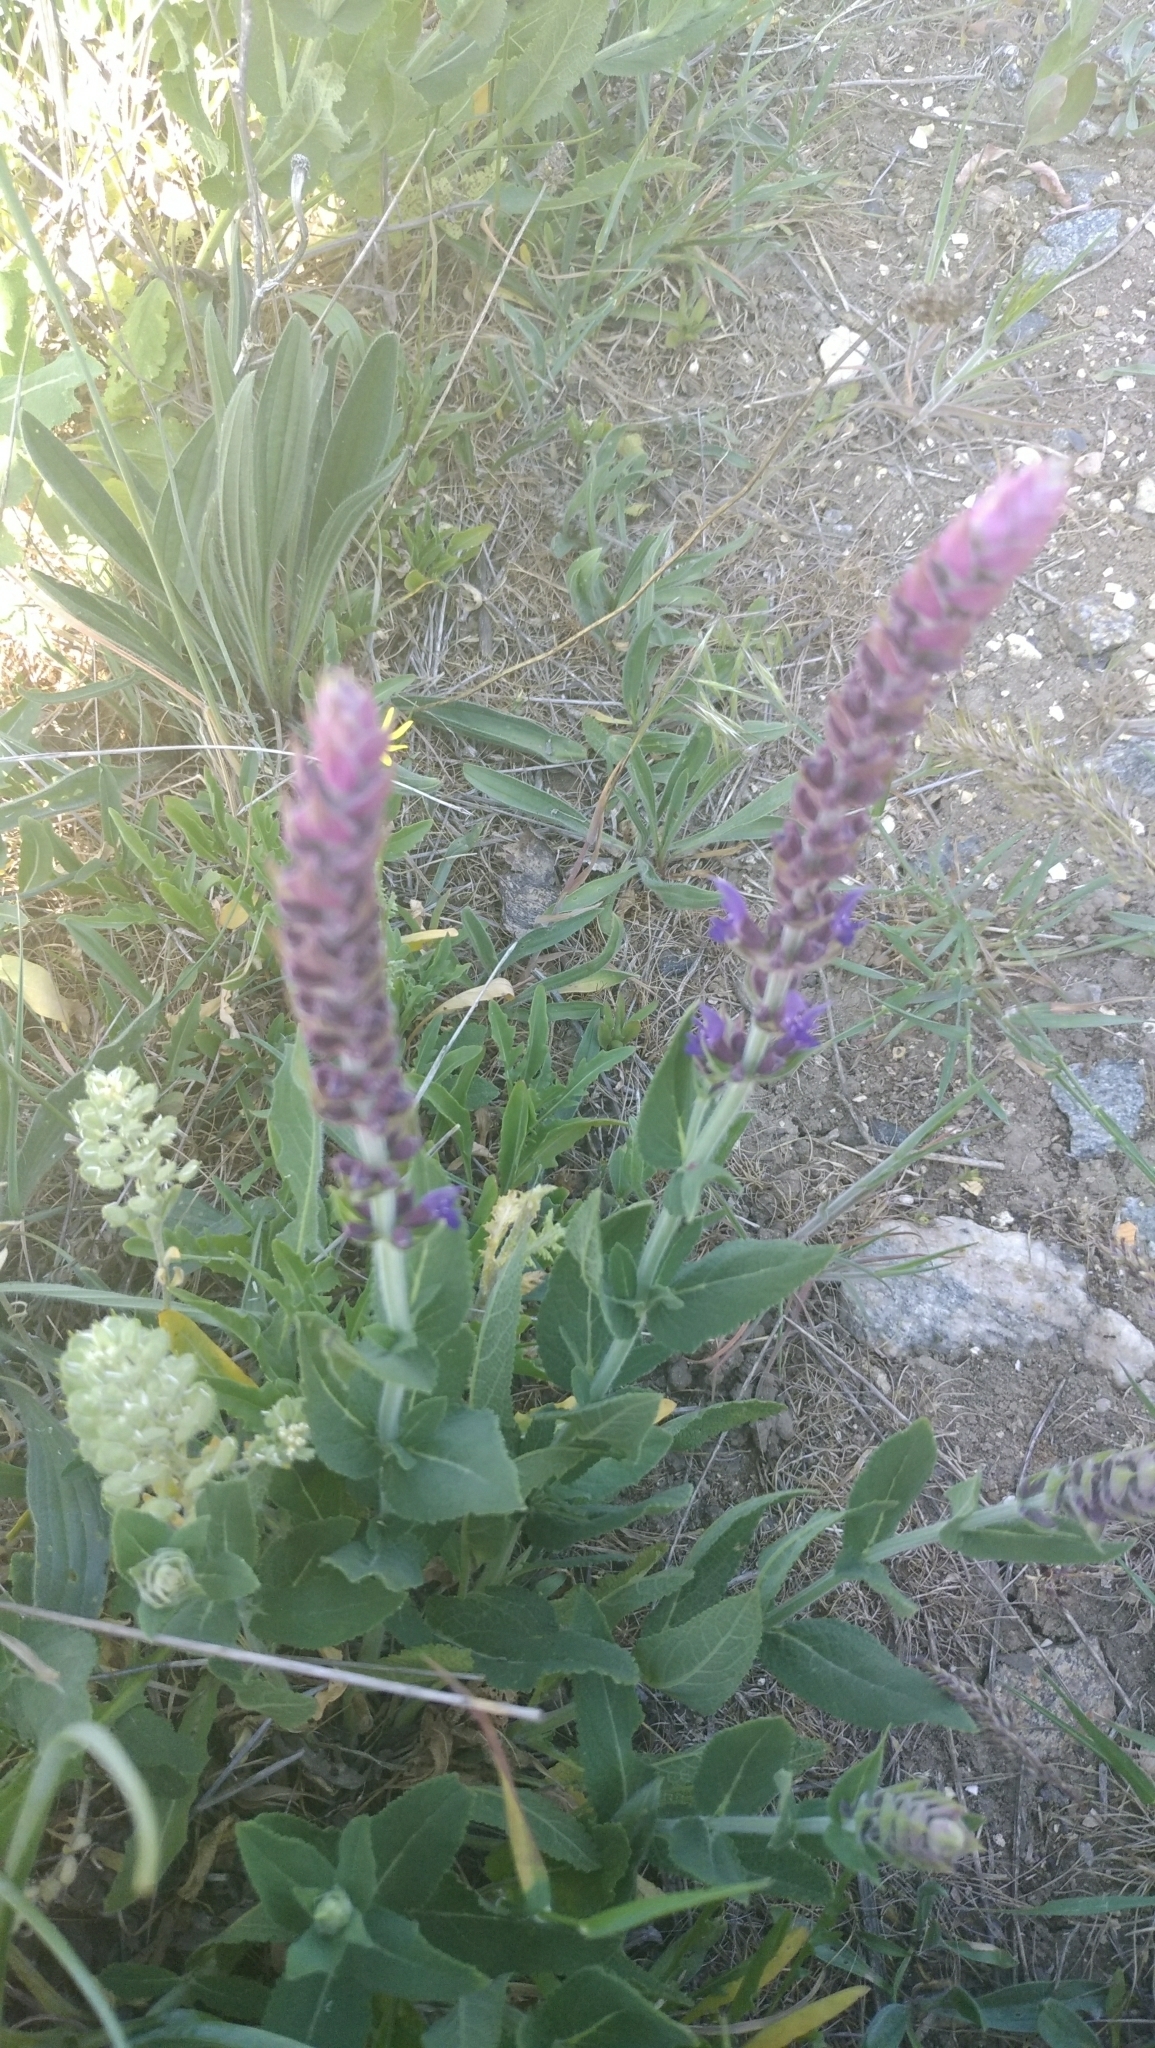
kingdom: Plantae
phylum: Tracheophyta
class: Magnoliopsida
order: Lamiales
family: Lamiaceae
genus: Salvia
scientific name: Salvia nemorosa
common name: Balkan clary
